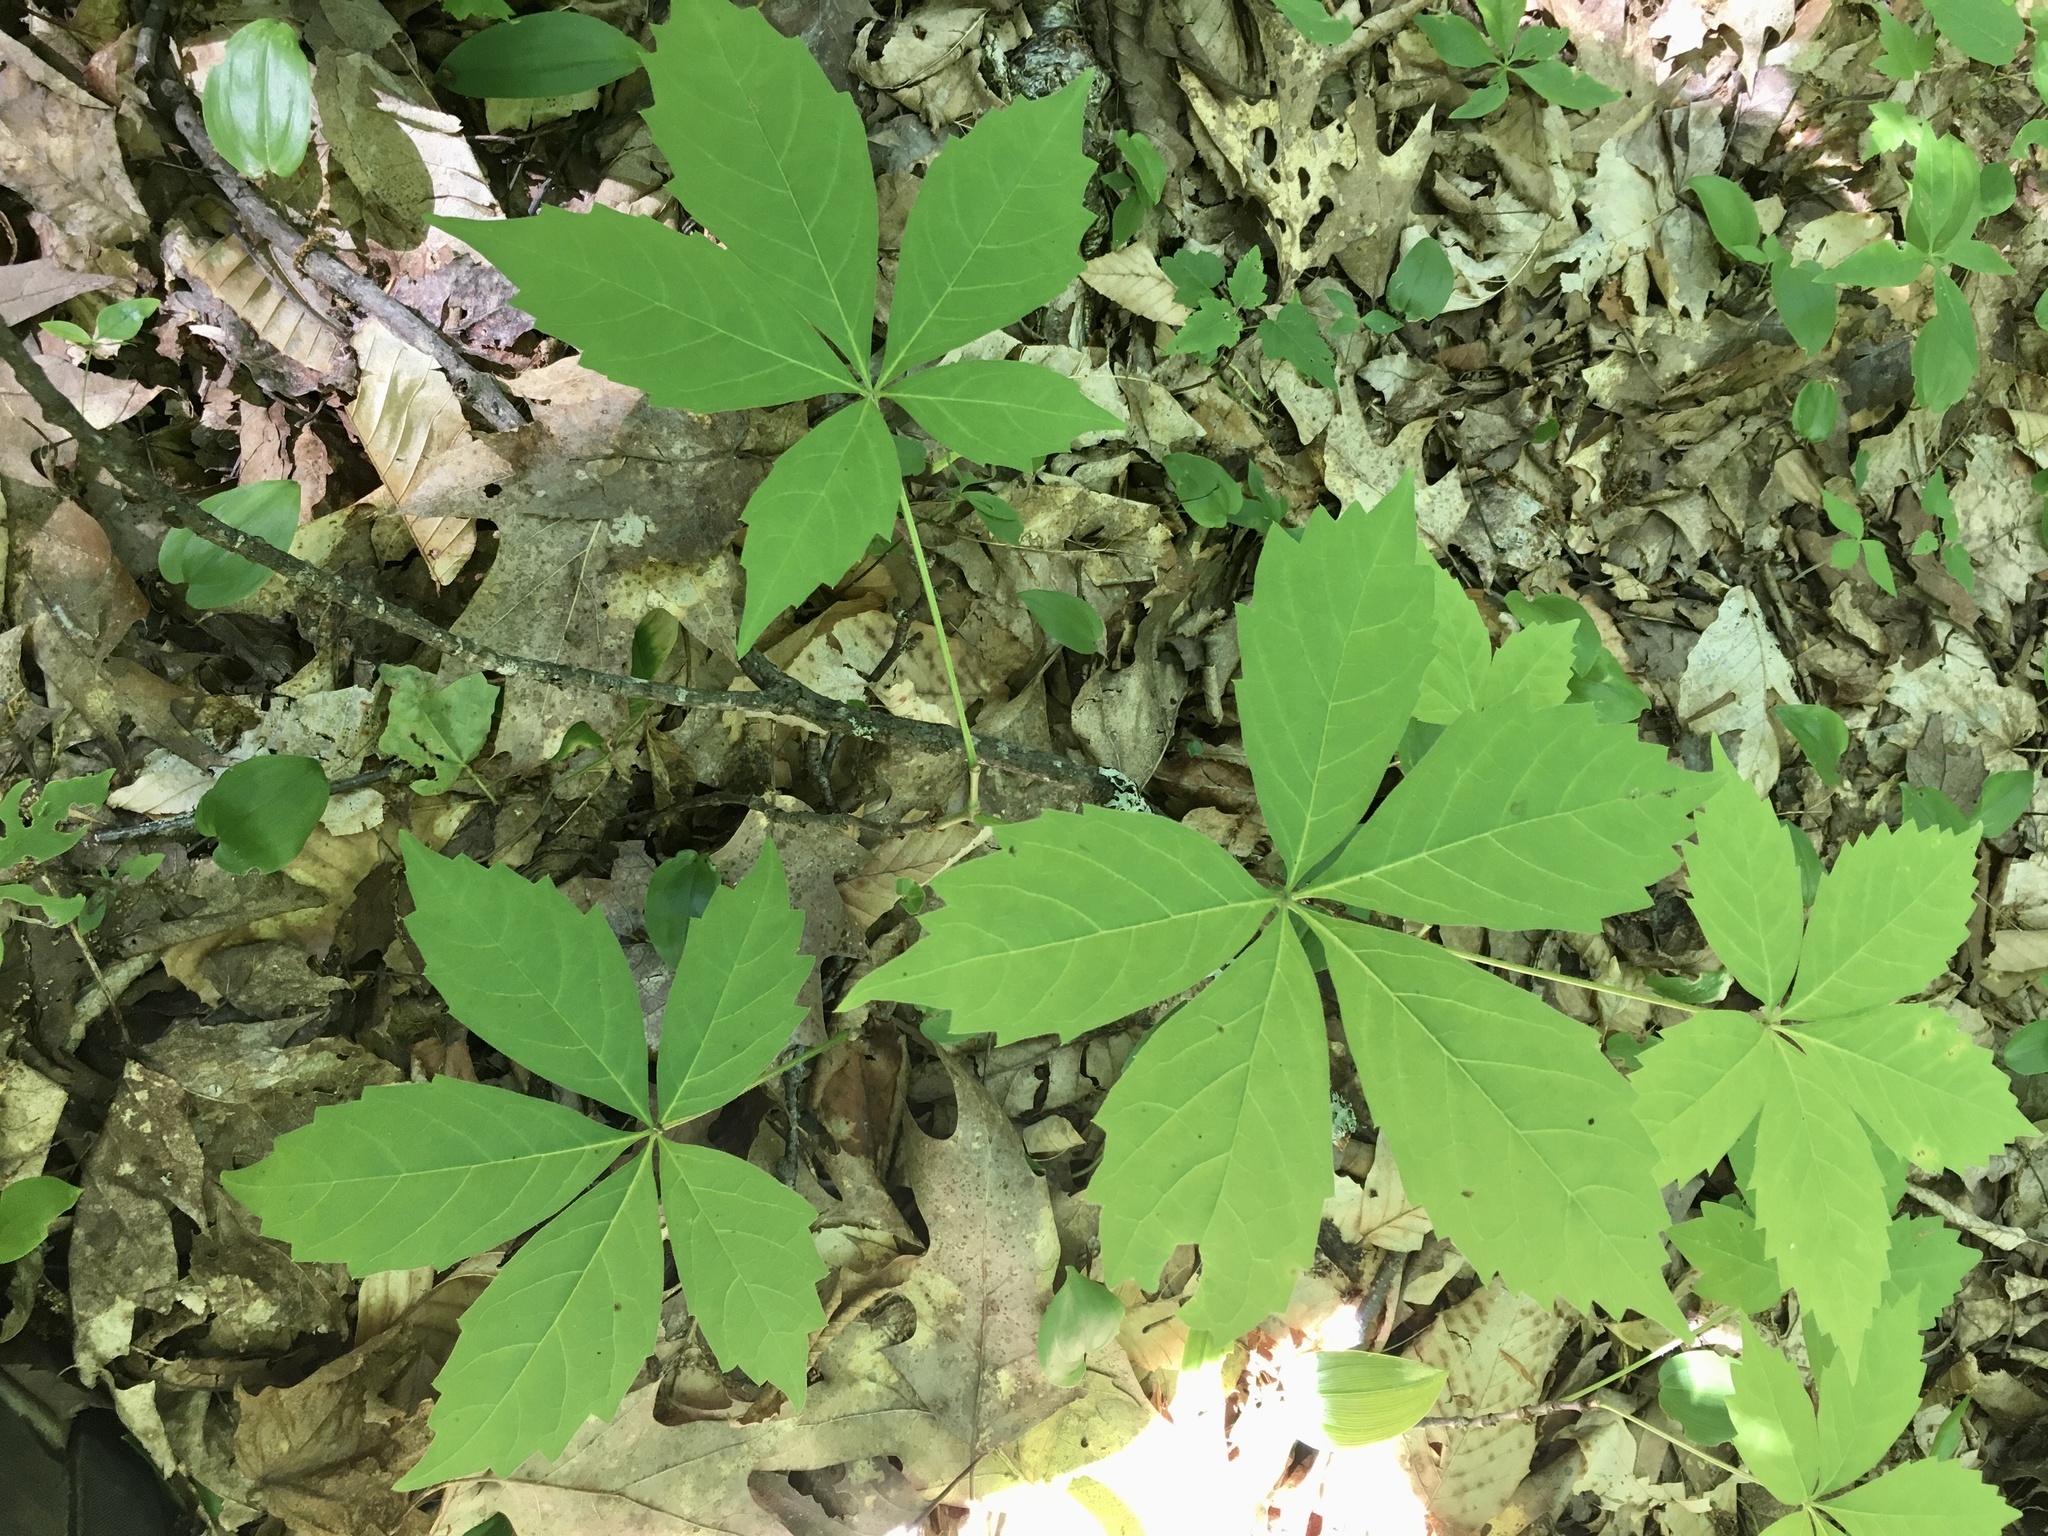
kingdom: Plantae
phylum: Tracheophyta
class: Magnoliopsida
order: Vitales
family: Vitaceae
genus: Parthenocissus
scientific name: Parthenocissus quinquefolia
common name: Virginia-creeper
